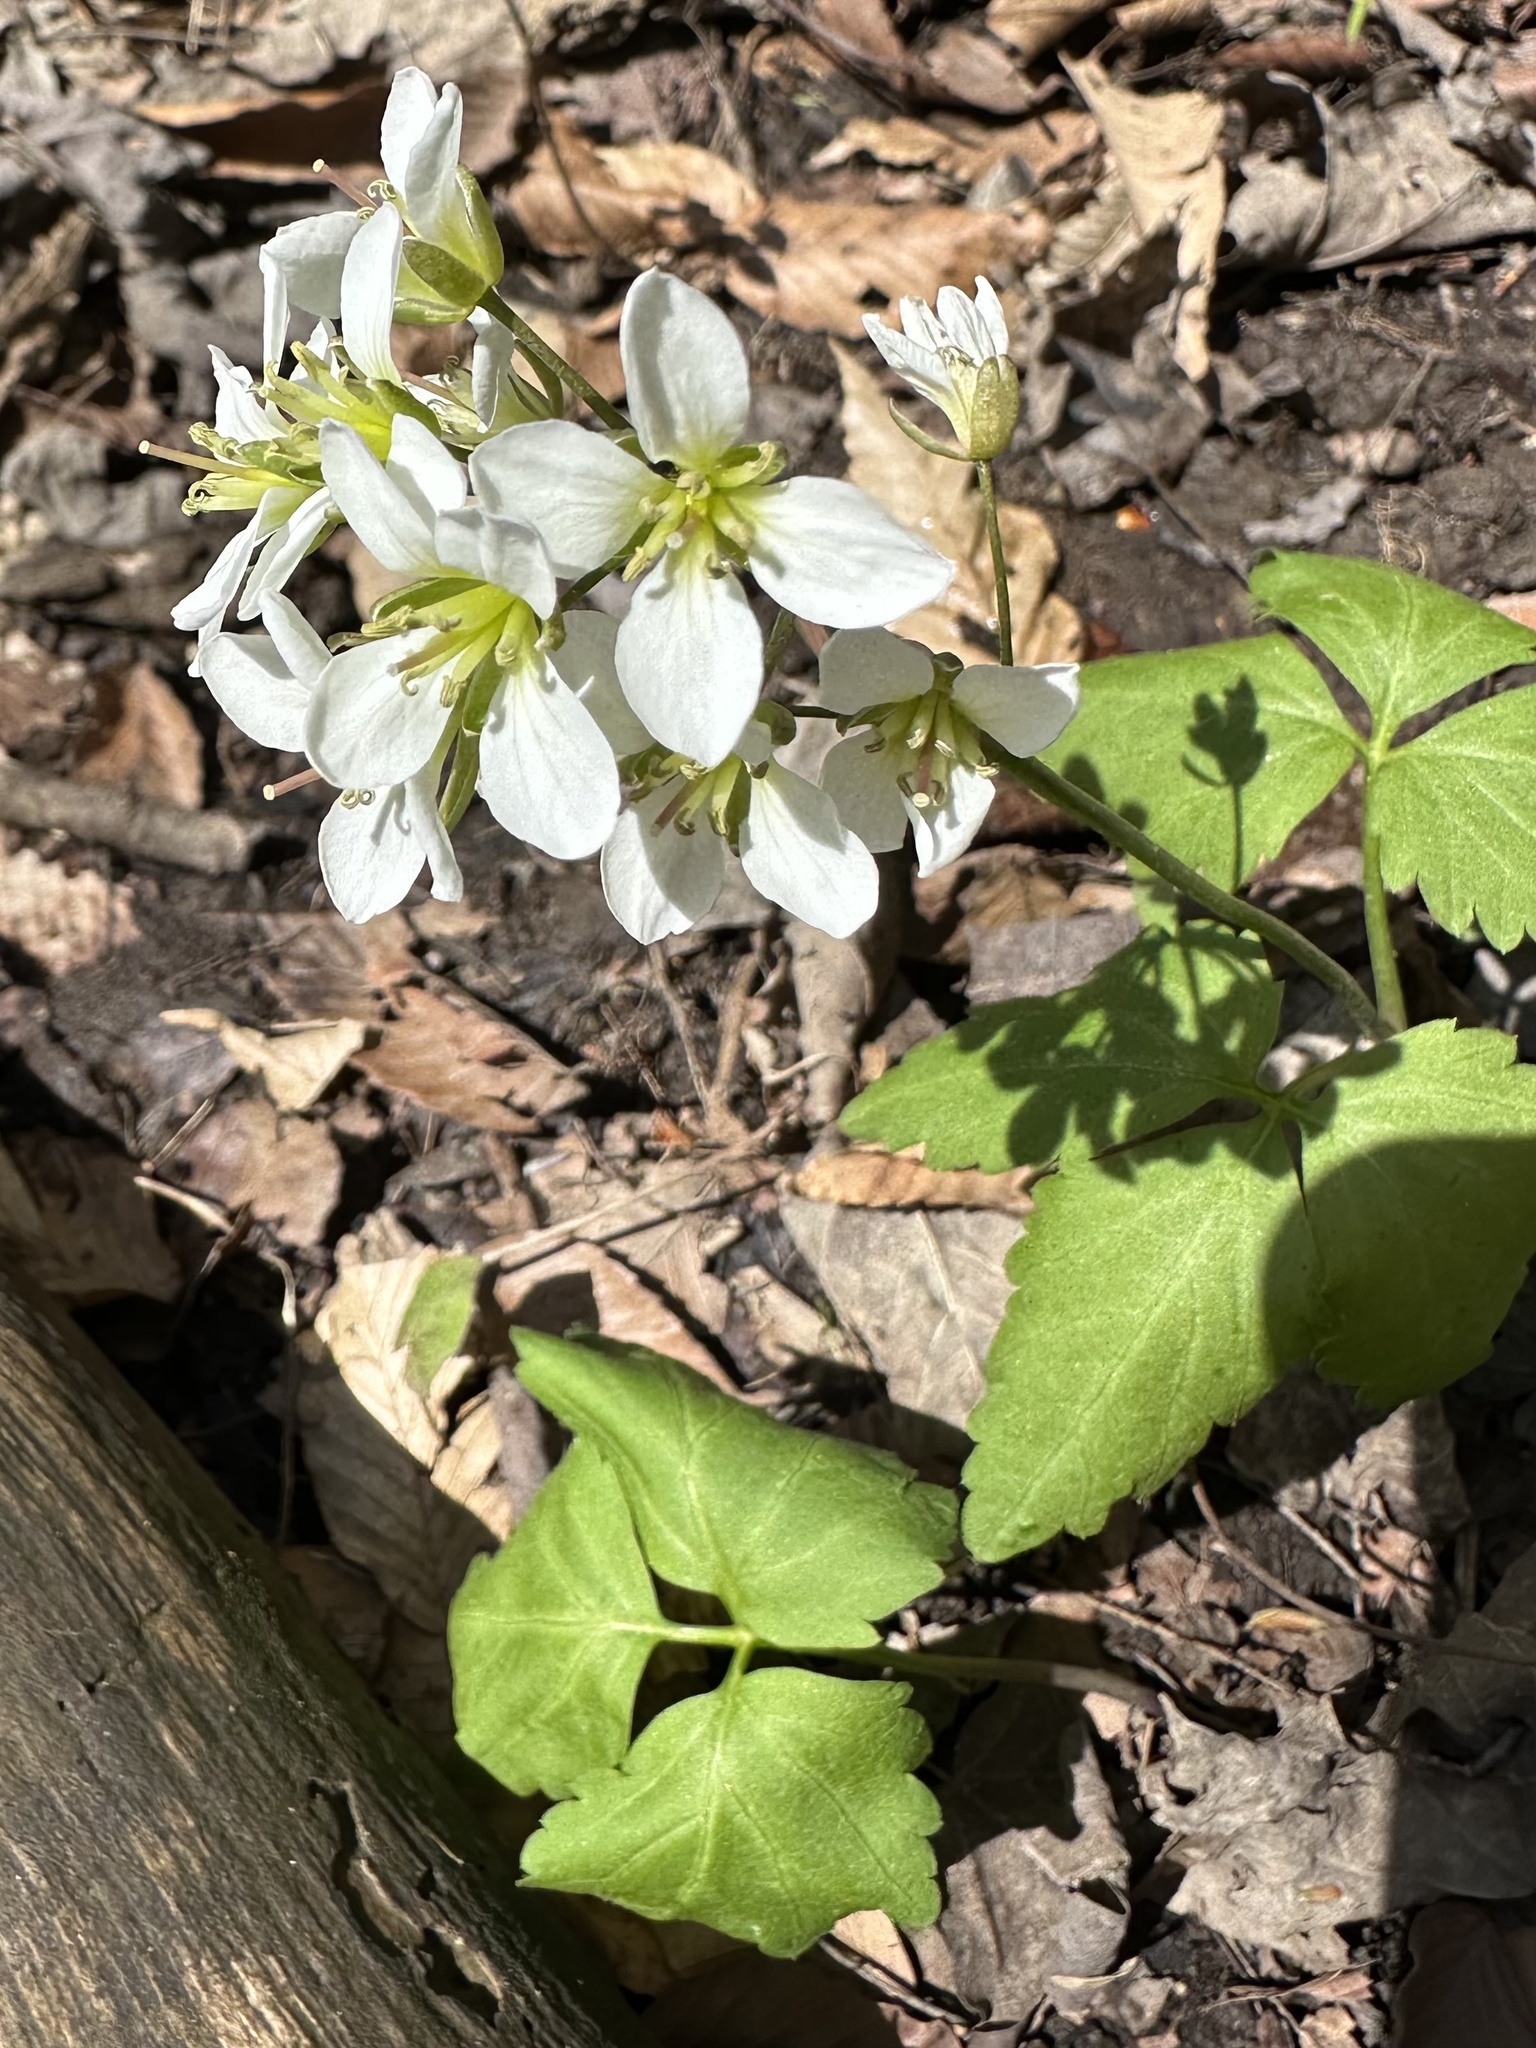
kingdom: Plantae
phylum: Tracheophyta
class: Magnoliopsida
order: Brassicales
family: Brassicaceae
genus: Cardamine
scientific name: Cardamine diphylla
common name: Broad-leaved toothwort
